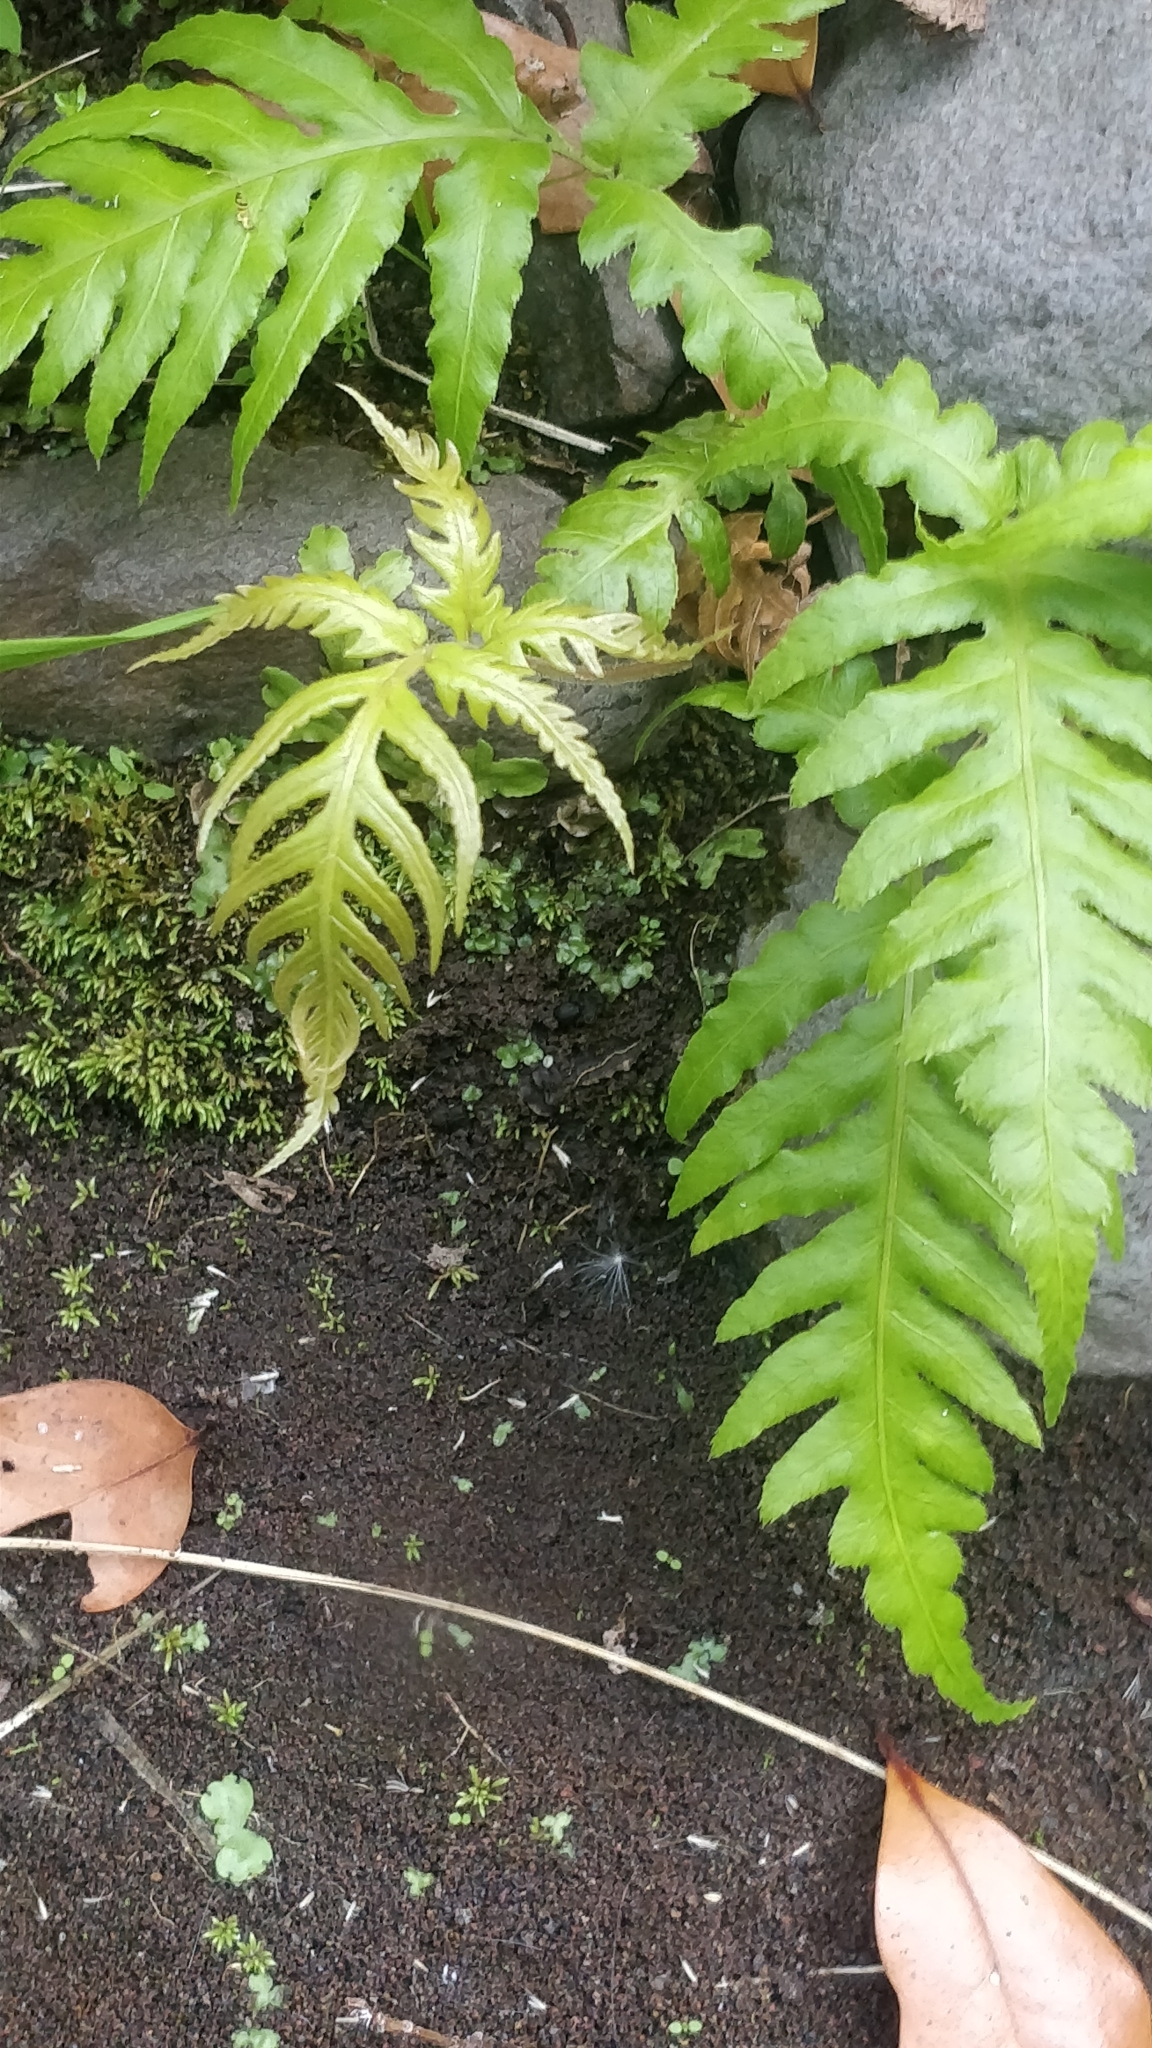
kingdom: Plantae
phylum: Tracheophyta
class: Polypodiopsida
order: Polypodiales
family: Blechnaceae
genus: Woodwardia
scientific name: Woodwardia radicans
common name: Rooting chainfern
